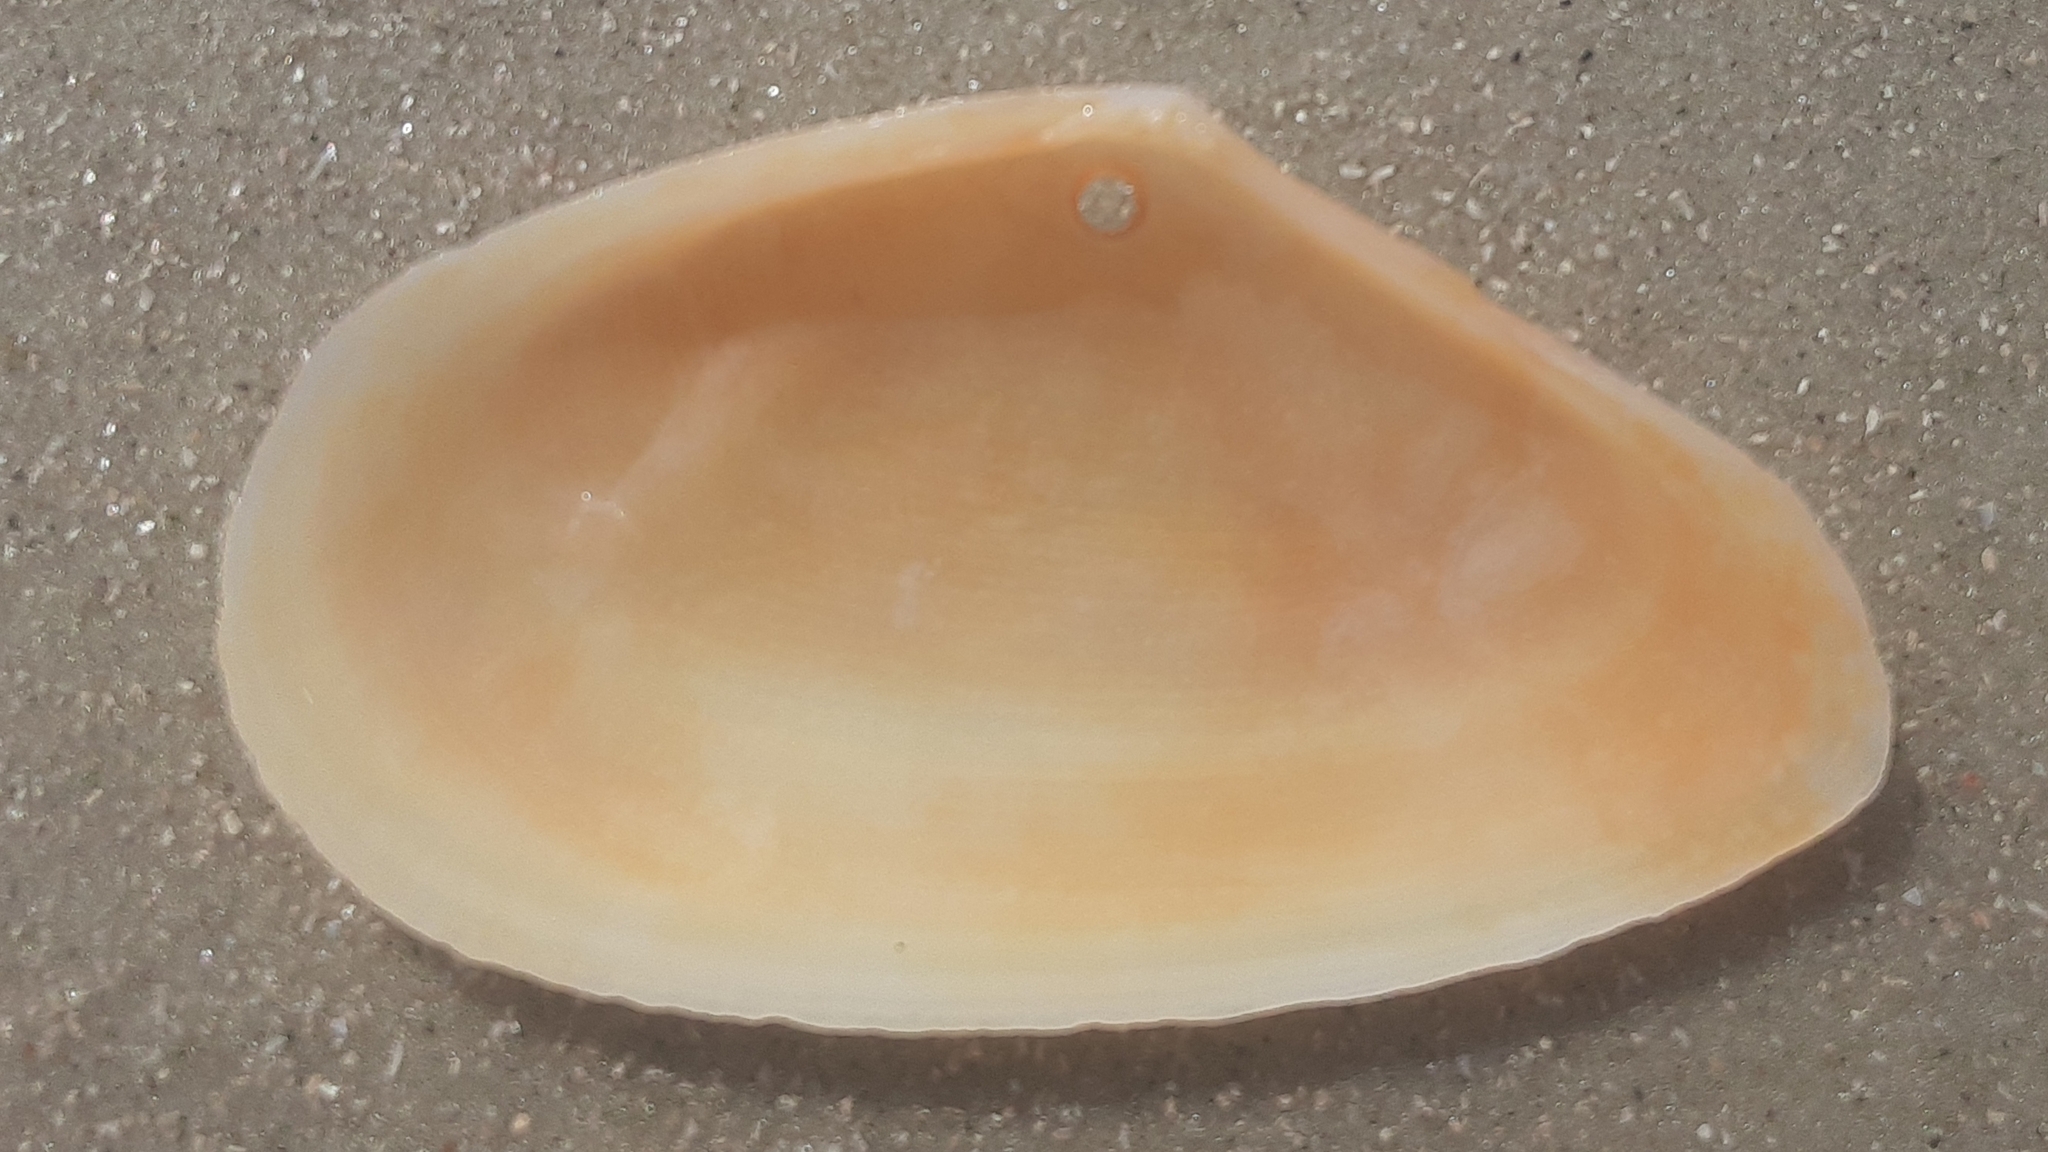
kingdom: Animalia
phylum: Mollusca
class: Bivalvia
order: Cardiida
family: Tellinidae
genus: Eurytellina
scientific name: Eurytellina alternata
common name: Alternate tellin
